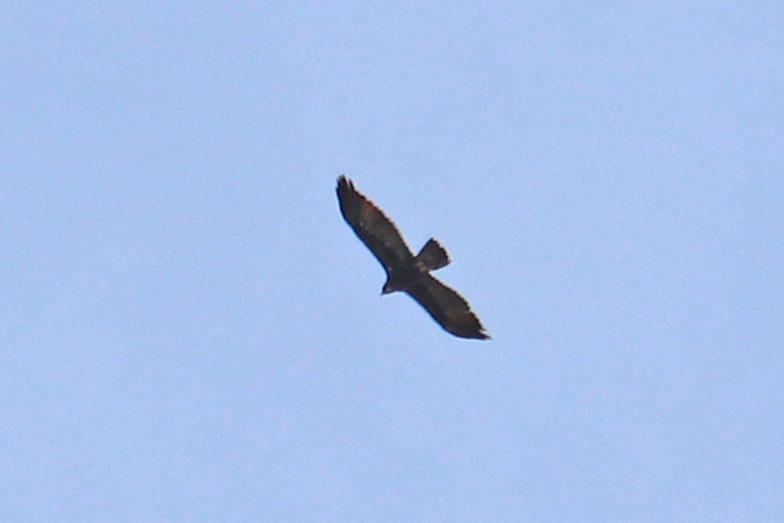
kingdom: Animalia
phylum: Chordata
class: Aves
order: Accipitriformes
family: Accipitridae
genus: Aquila
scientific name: Aquila chrysaetos
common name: Golden eagle
